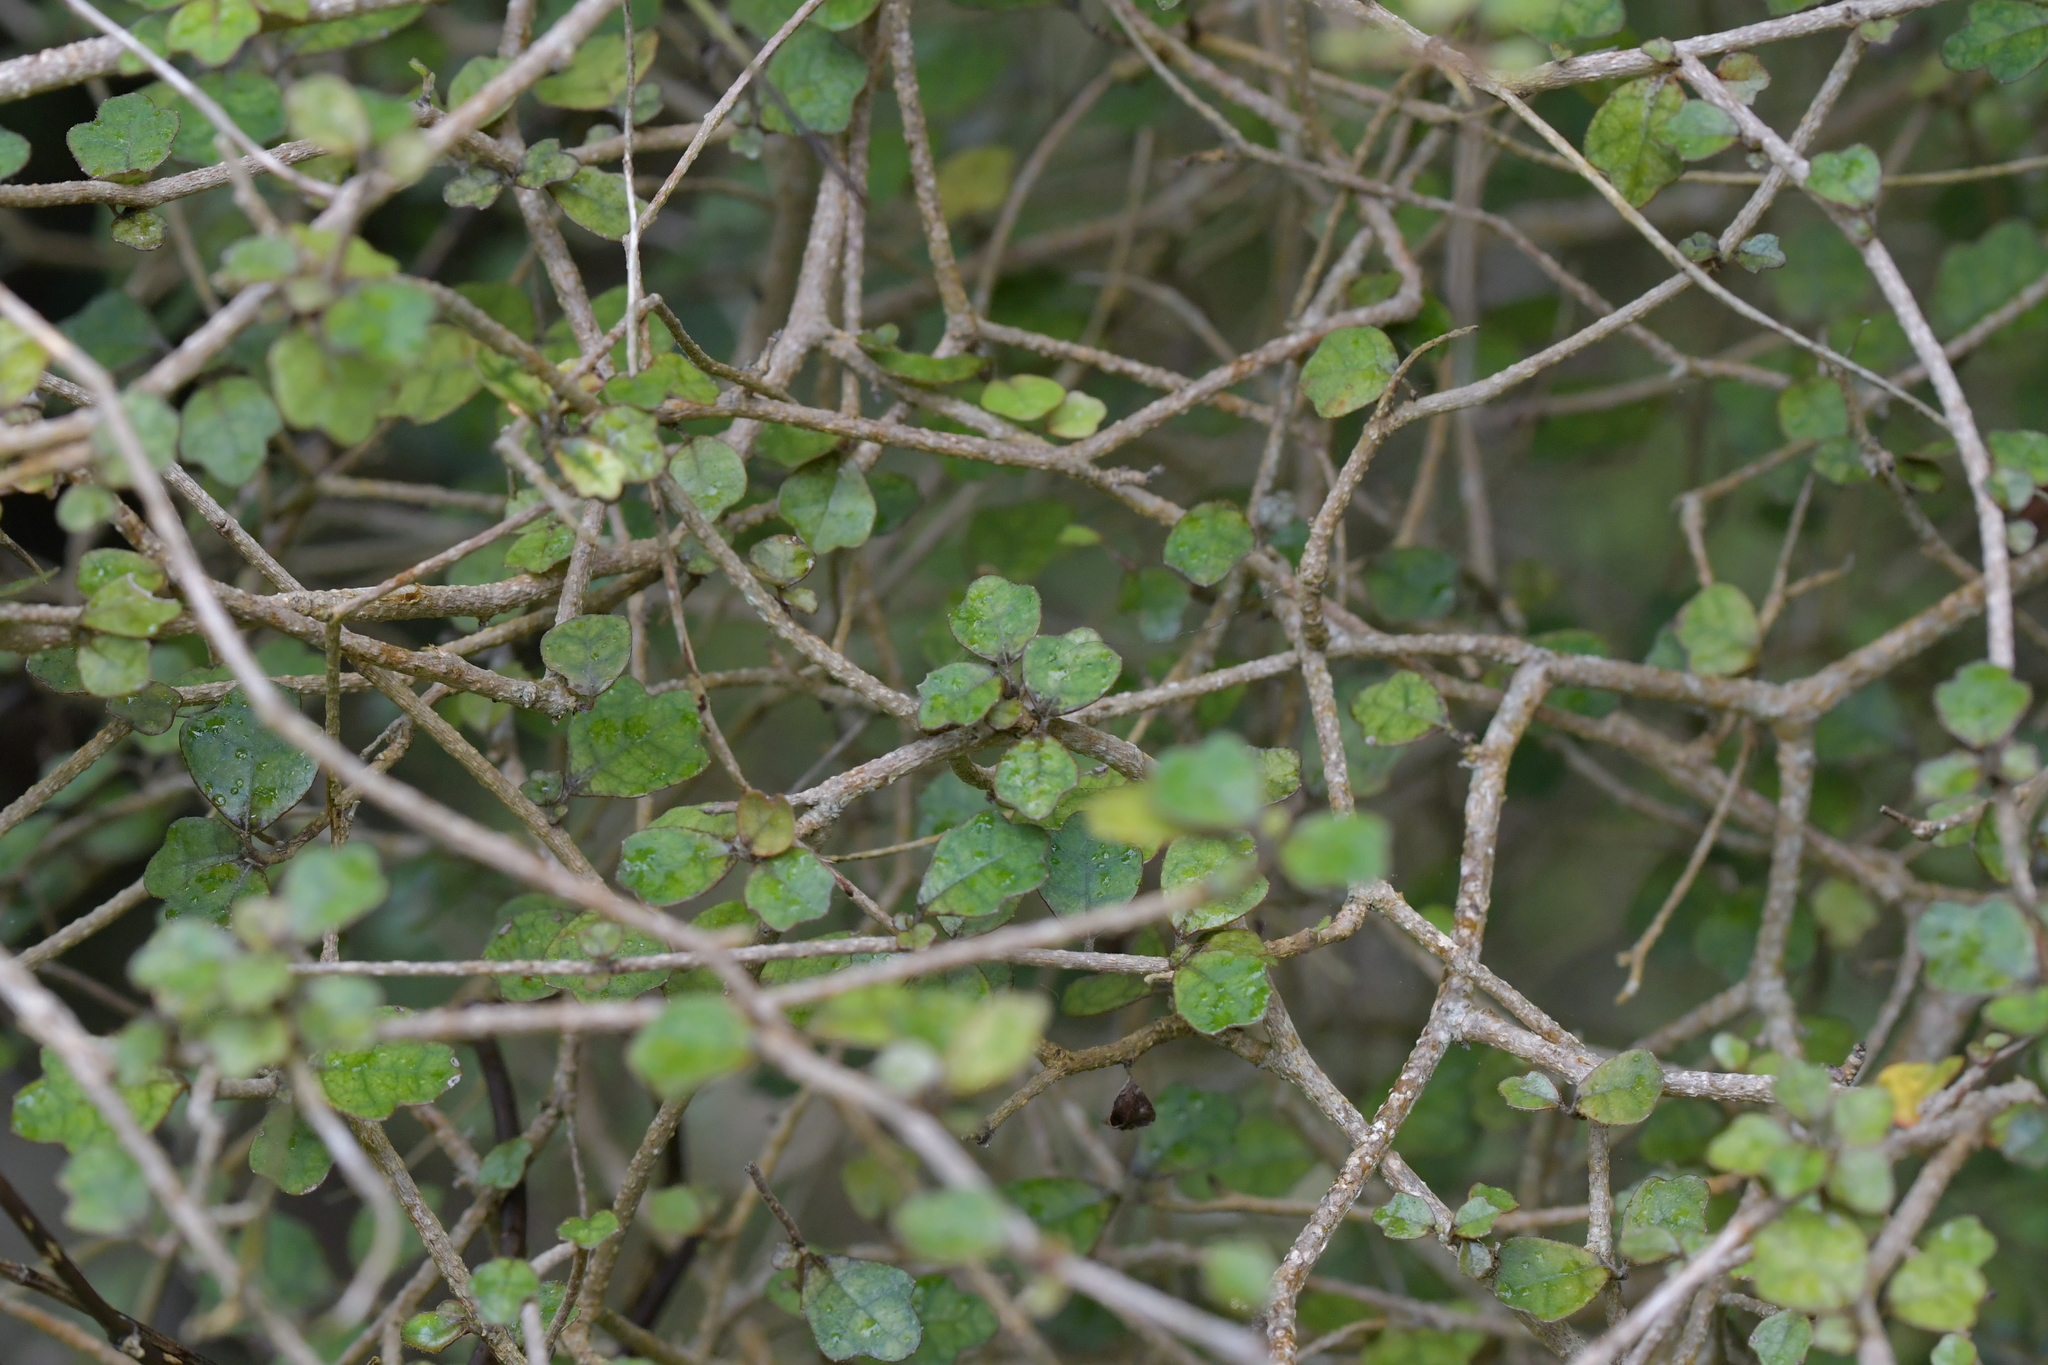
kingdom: Plantae
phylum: Tracheophyta
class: Magnoliopsida
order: Apiales
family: Pennantiaceae
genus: Pennantia
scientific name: Pennantia corymbosa
